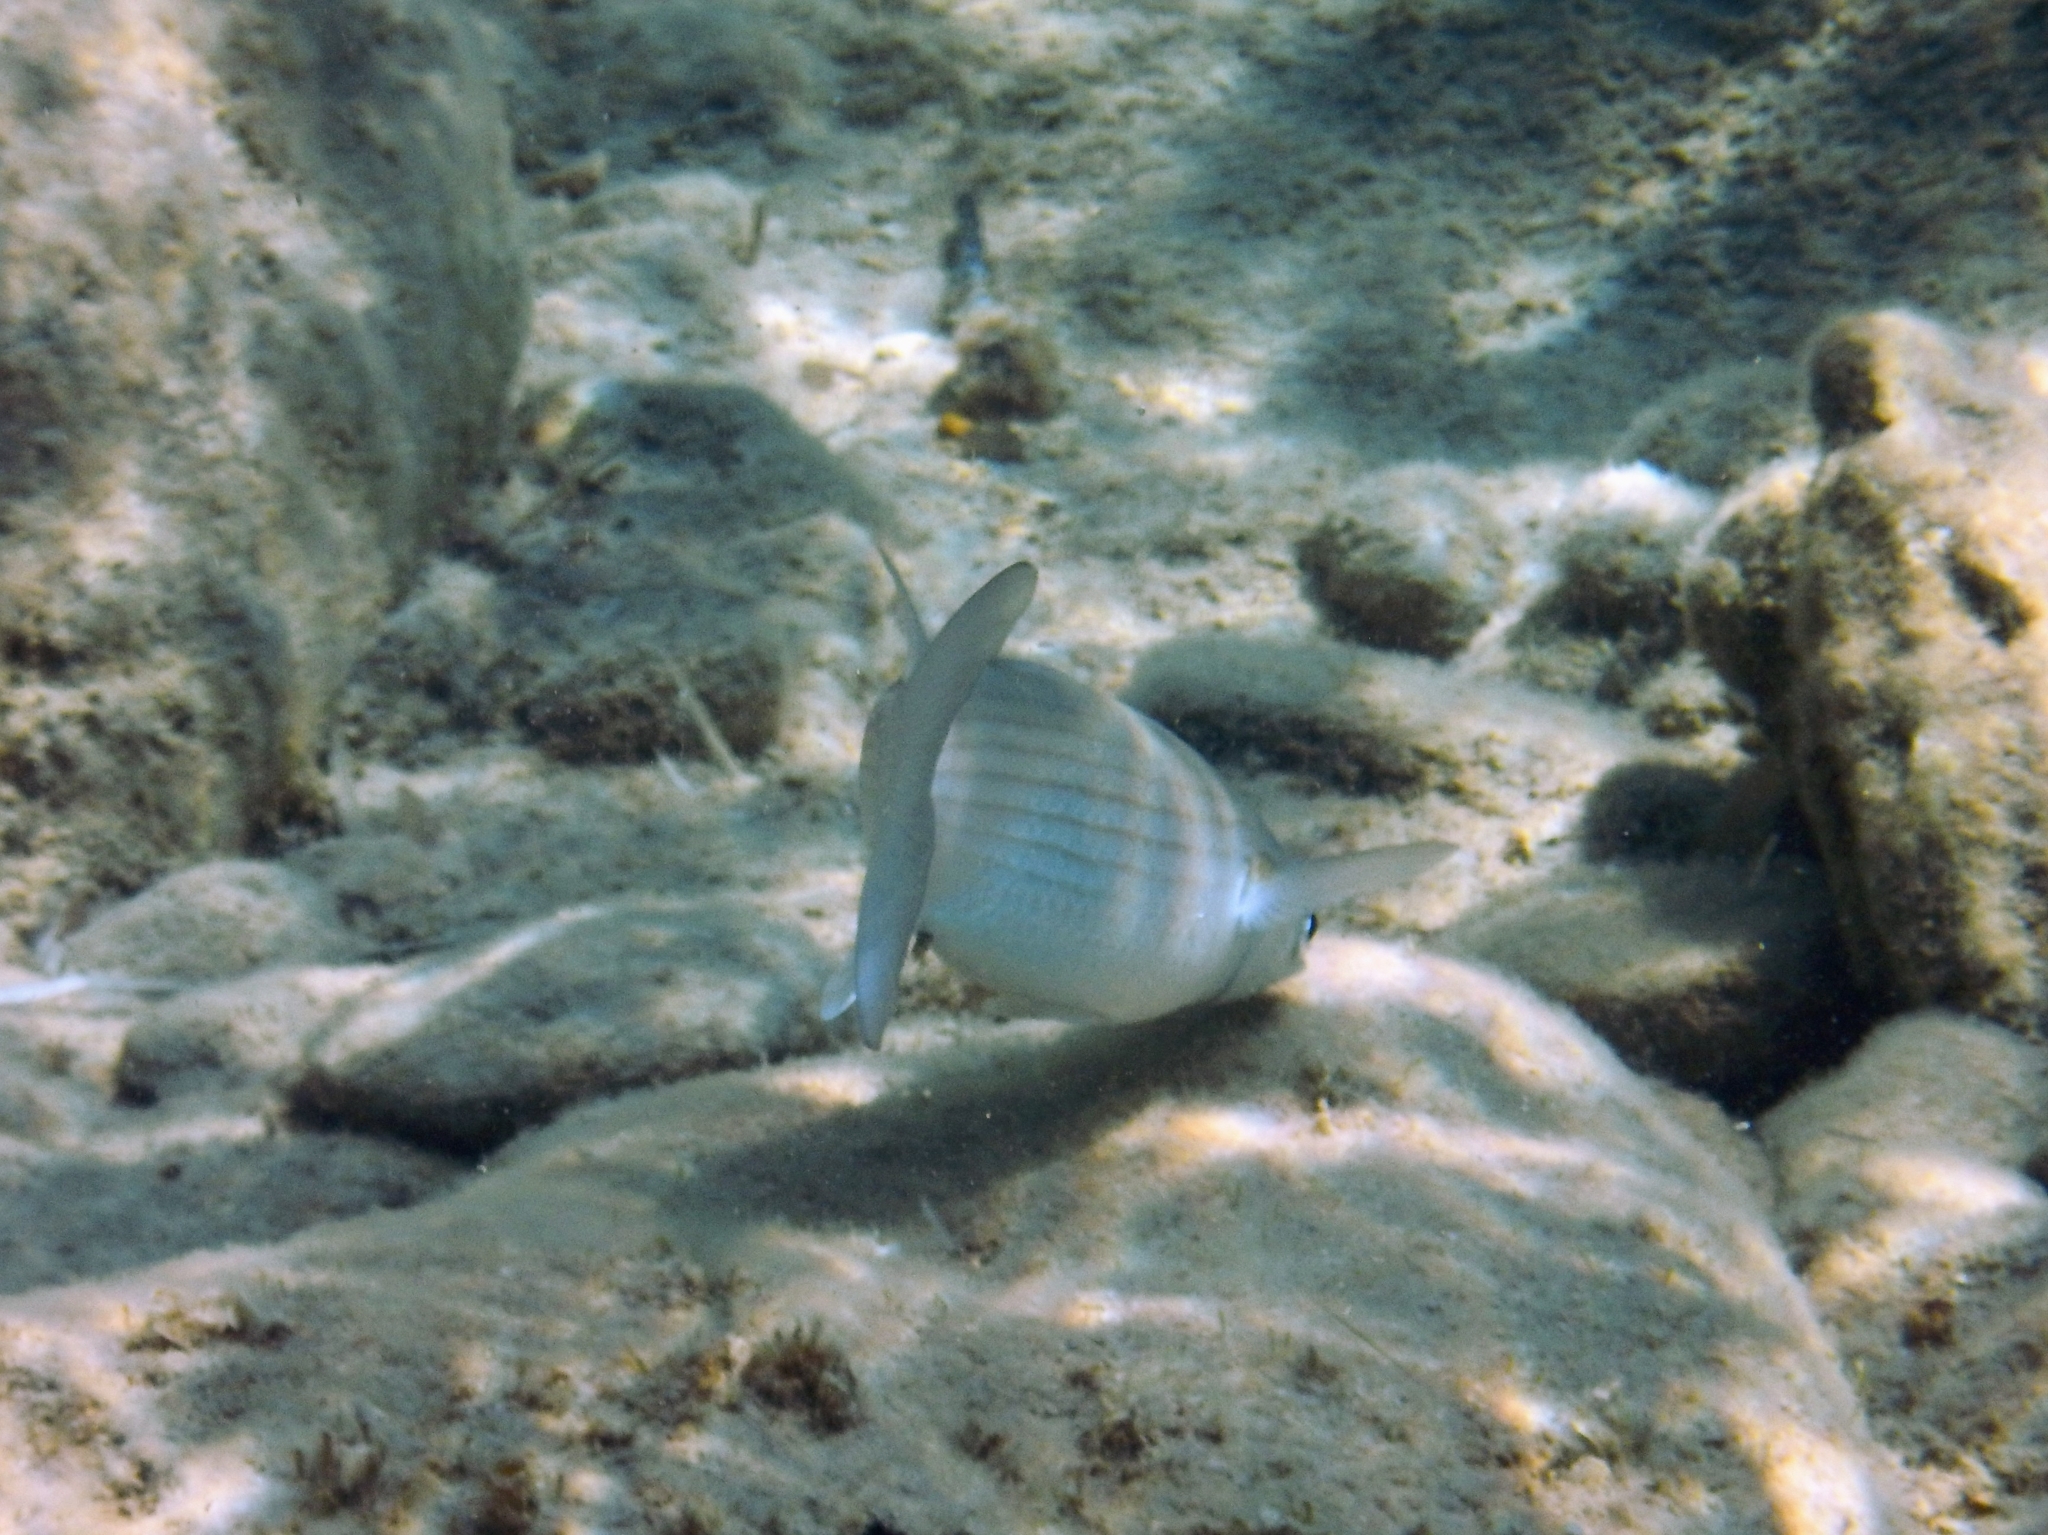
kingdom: Animalia
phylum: Chordata
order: Mugiliformes
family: Mugilidae
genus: Chelon
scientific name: Chelon labrosus
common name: Thick-lipped mullet
